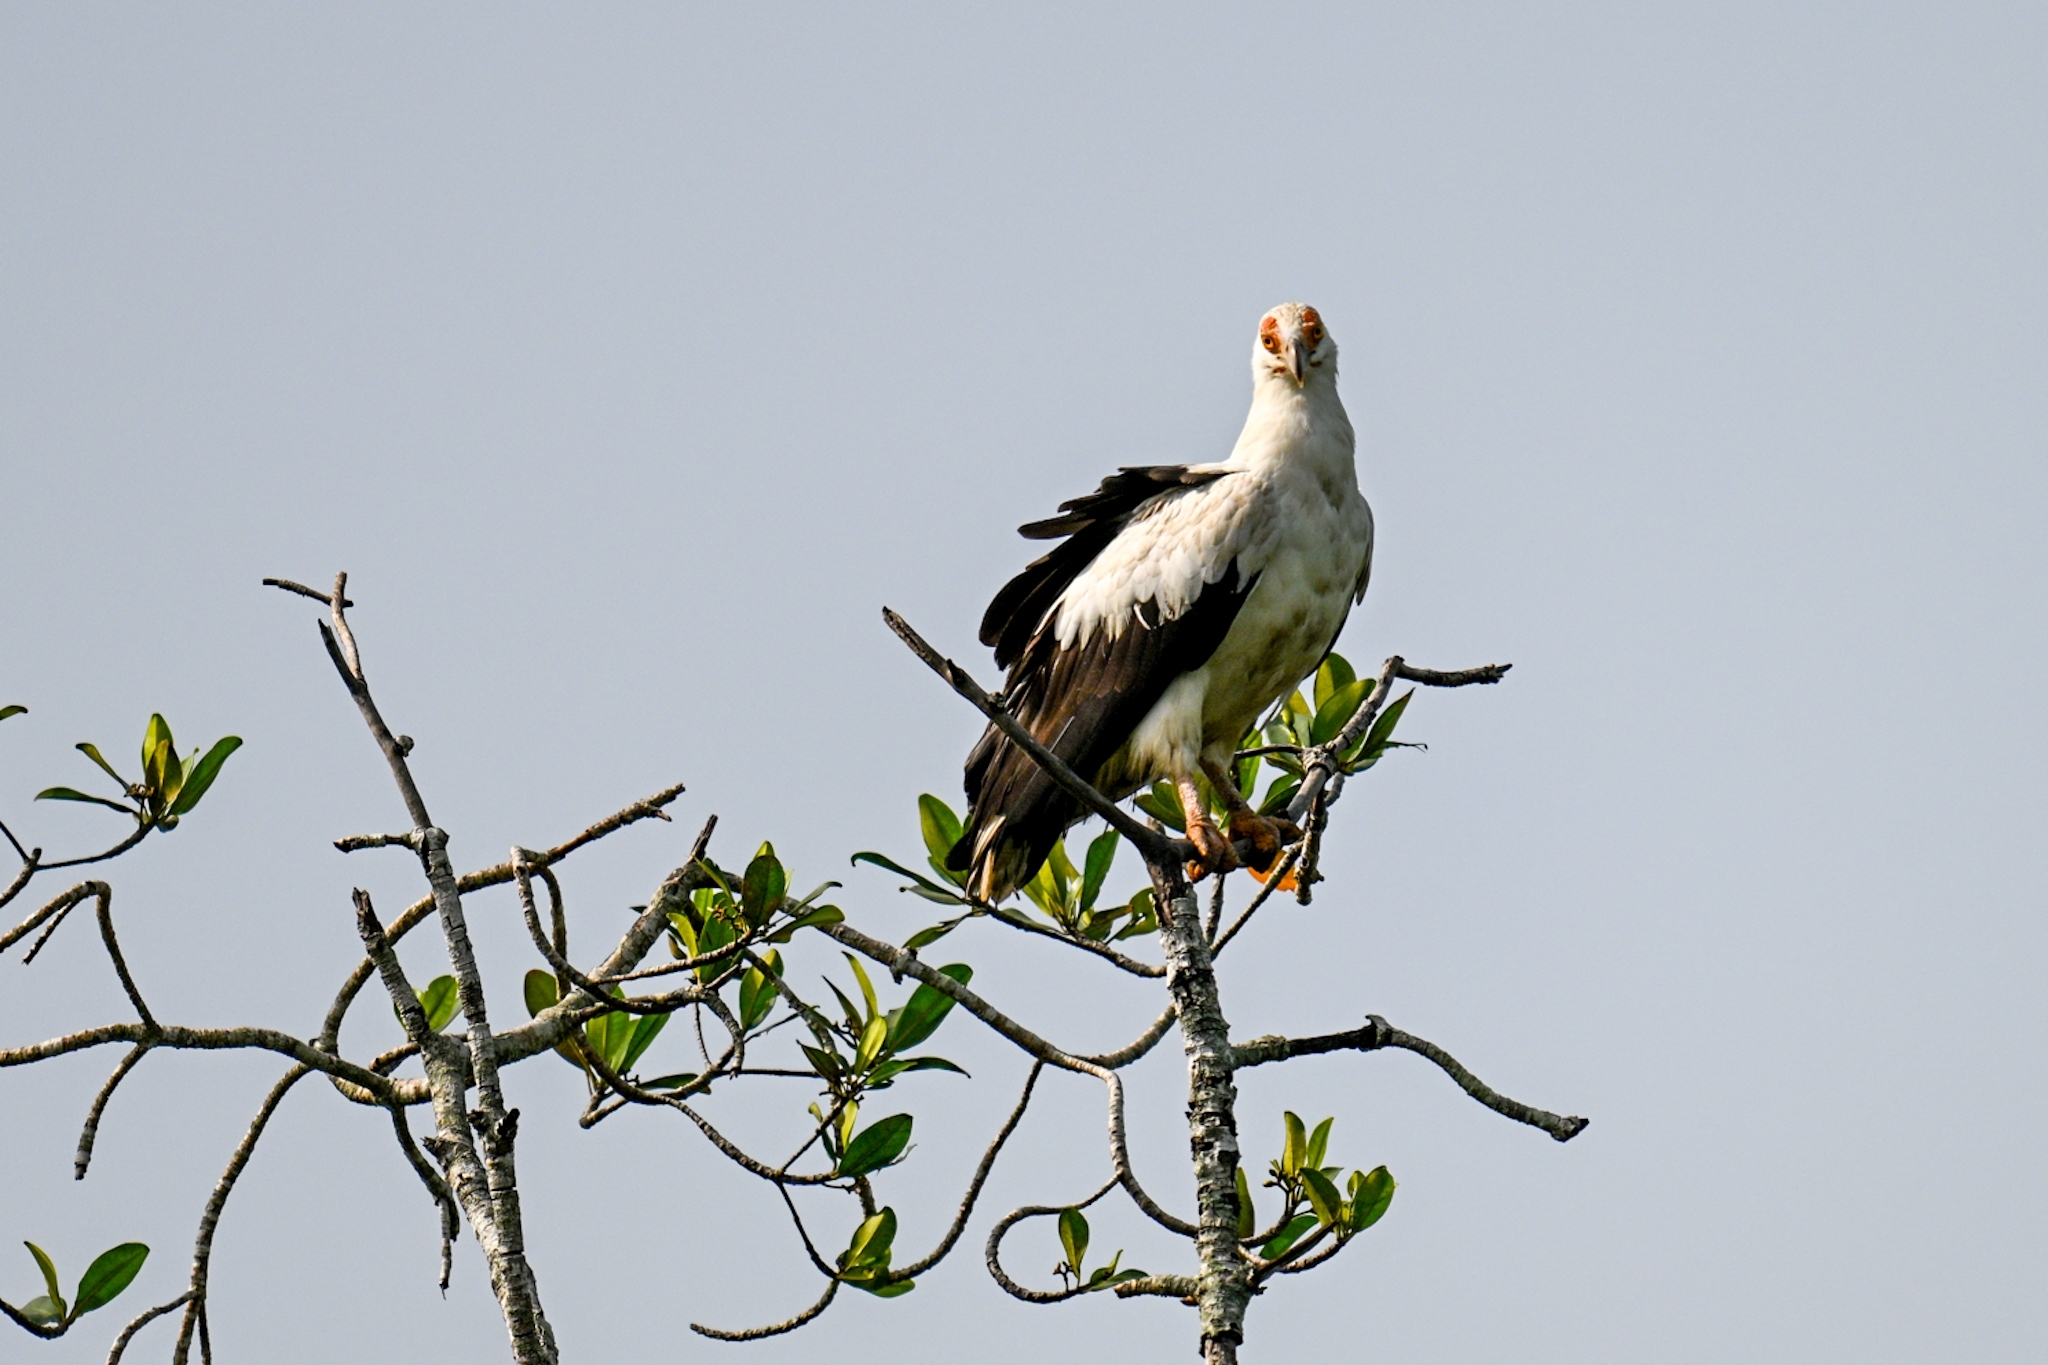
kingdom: Animalia
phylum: Chordata
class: Aves
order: Accipitriformes
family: Accipitridae
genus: Gypohierax
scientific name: Gypohierax angolensis
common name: Palm-nut vulture
